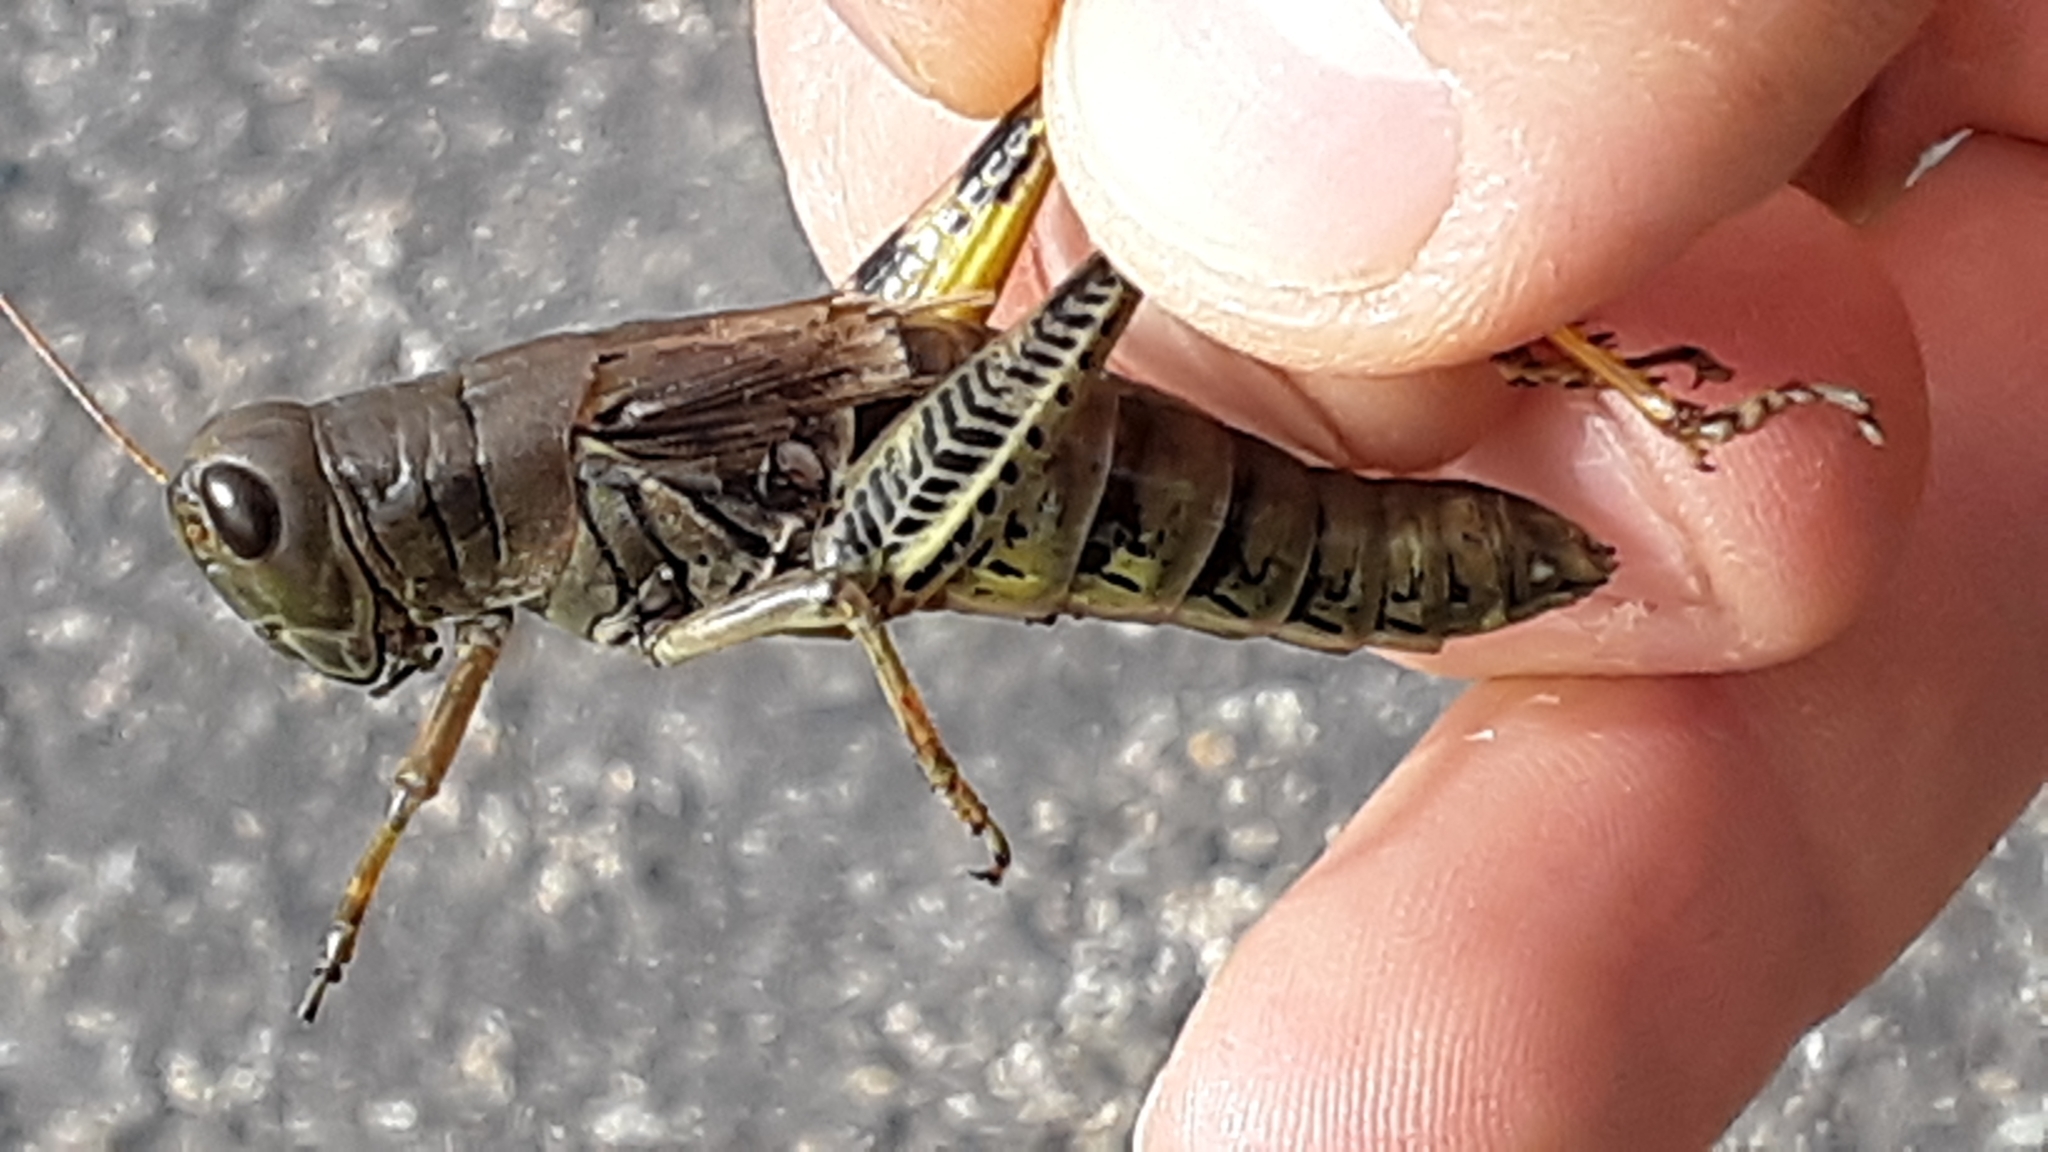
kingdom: Animalia
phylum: Arthropoda
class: Insecta
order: Orthoptera
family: Acrididae
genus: Melanoplus
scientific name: Melanoplus differentialis
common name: Differential grasshopper
